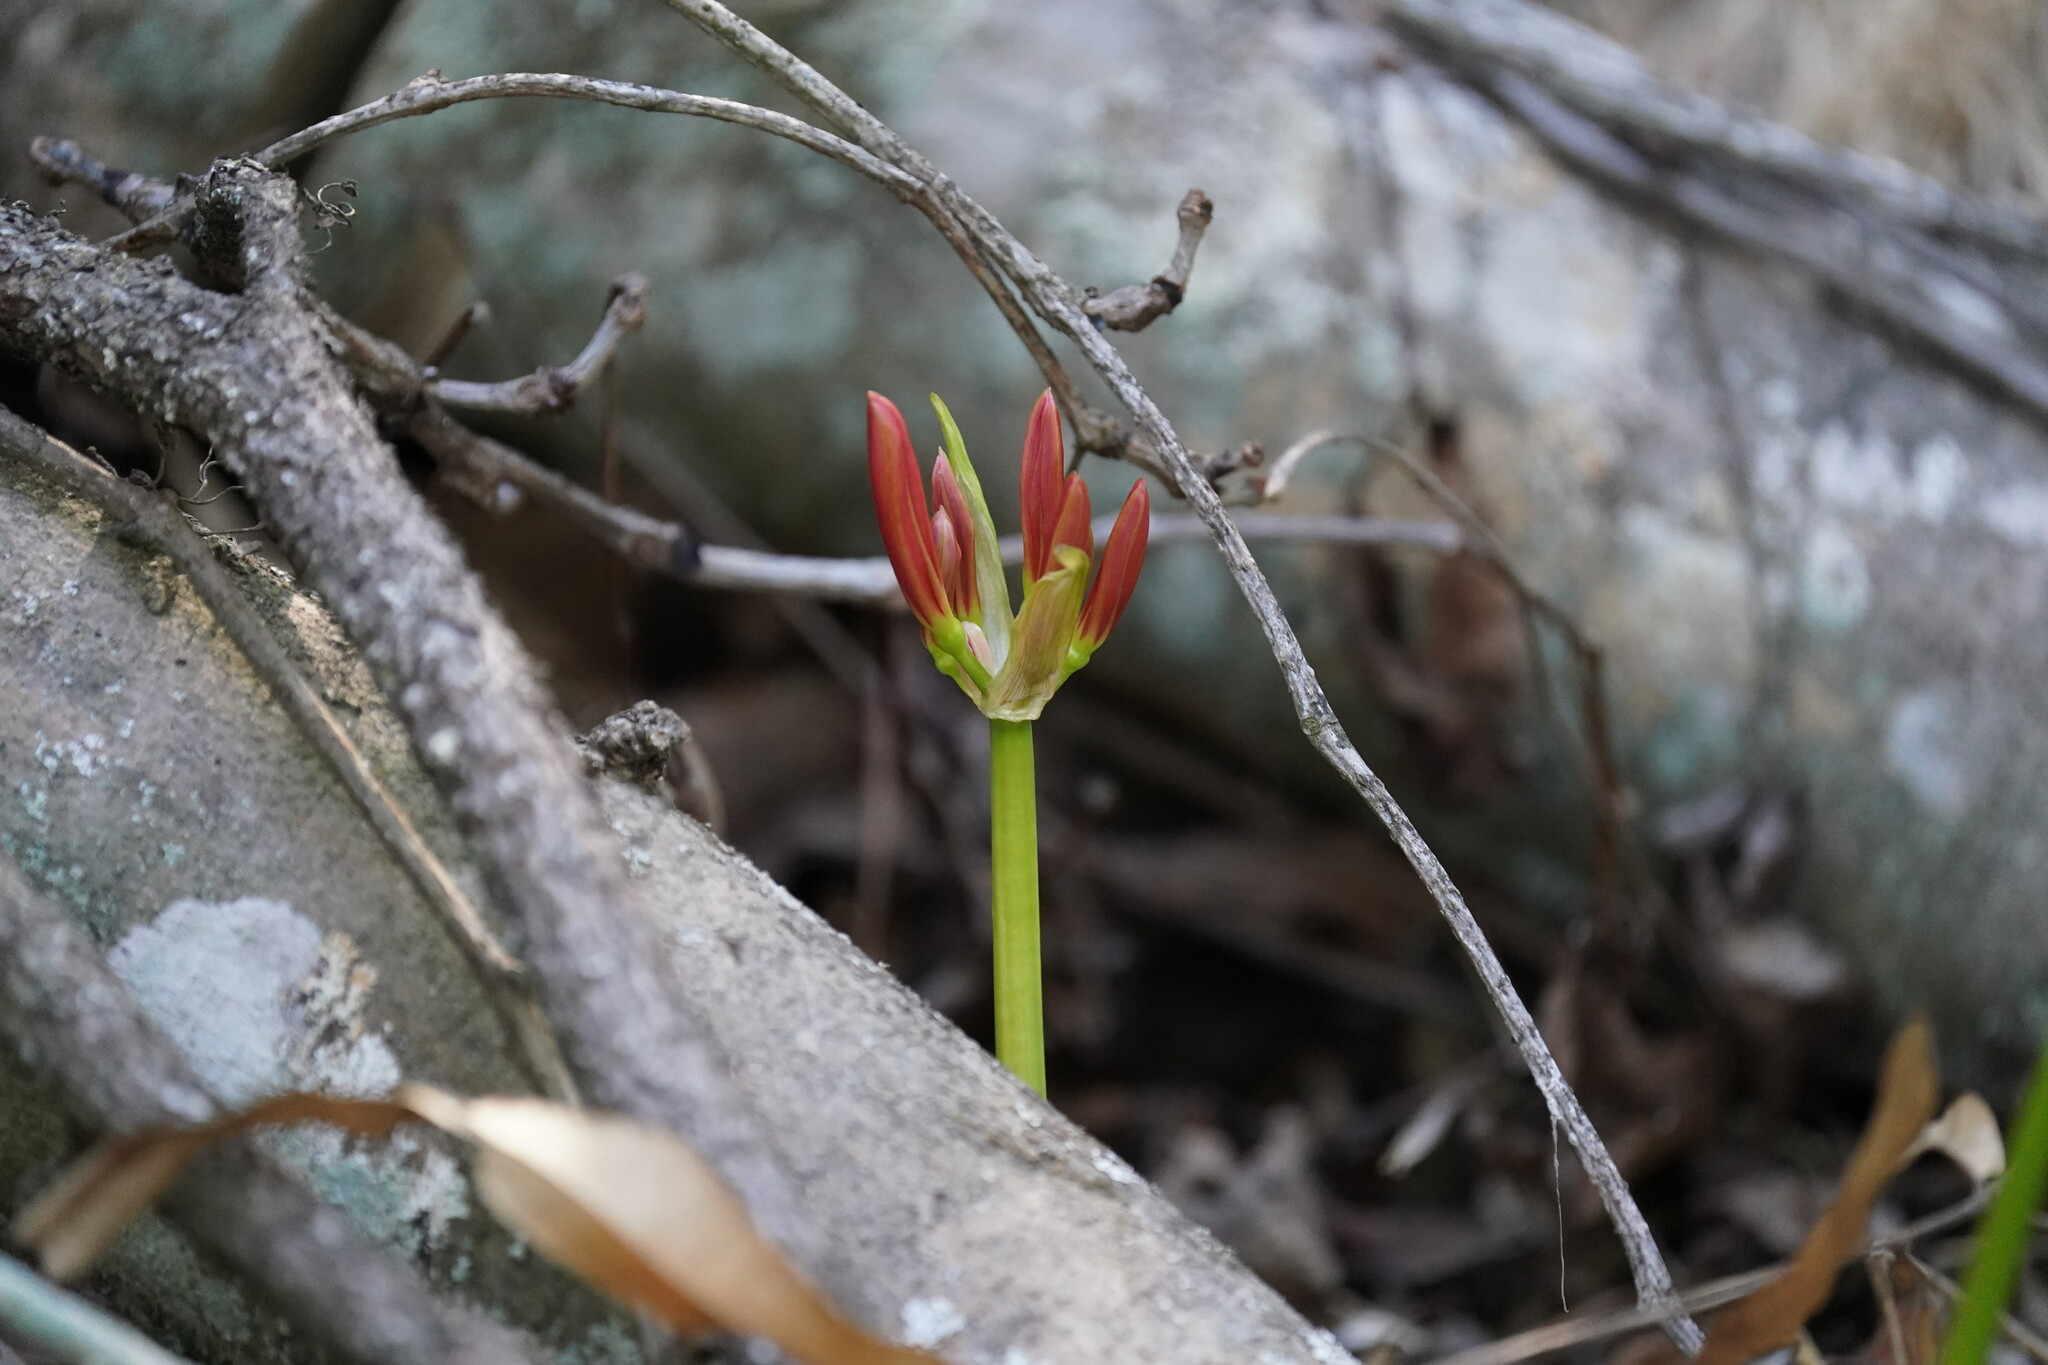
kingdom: Plantae
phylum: Tracheophyta
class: Liliopsida
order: Asparagales
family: Amaryllidaceae
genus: Lycoris
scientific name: Lycoris radiata
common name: Red spider lily
